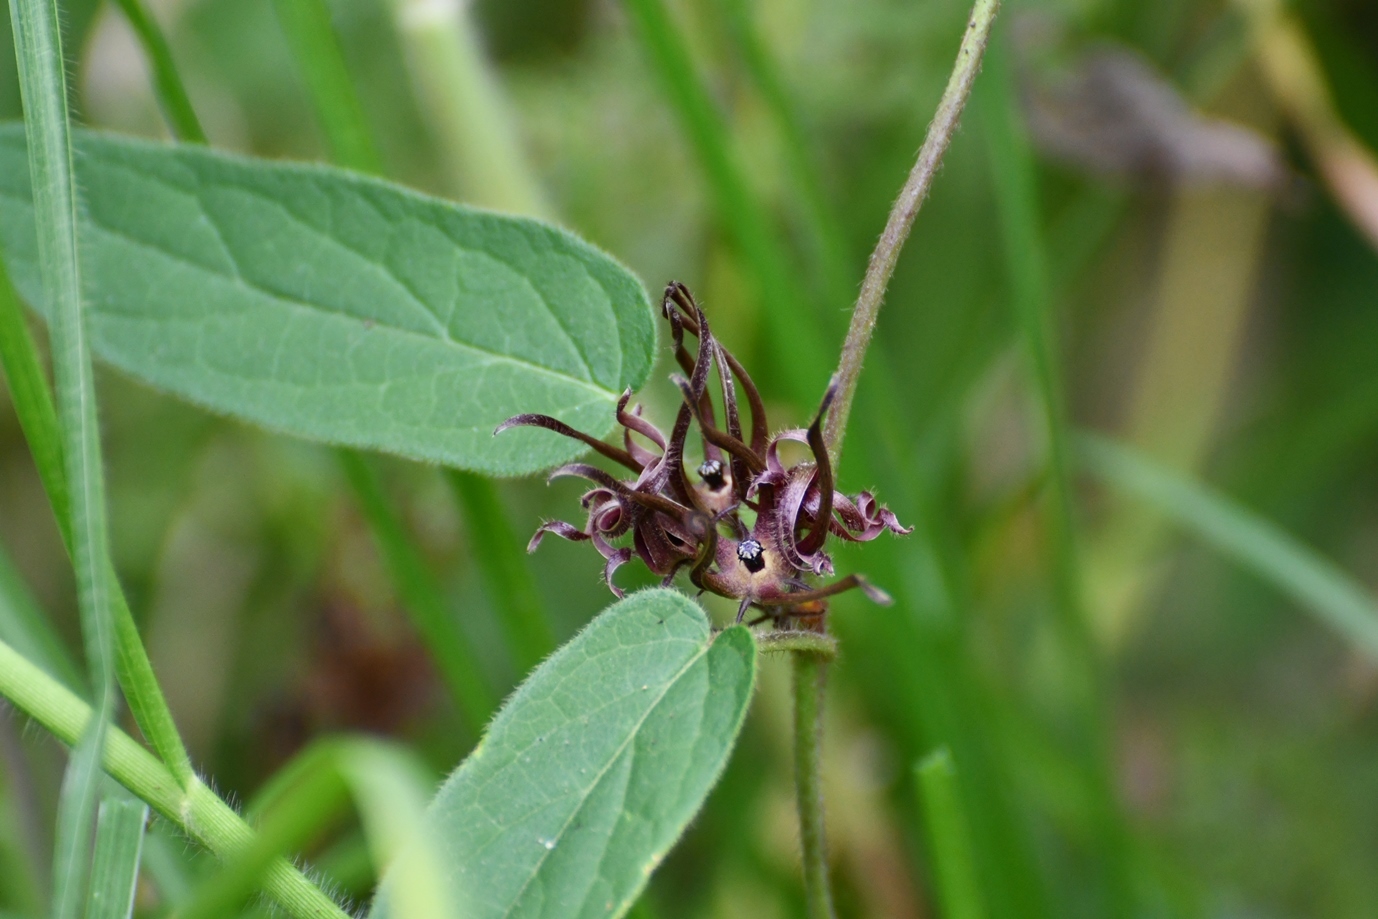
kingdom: Plantae
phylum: Tracheophyta
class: Magnoliopsida
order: Gentianales
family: Apocynaceae
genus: Matelea
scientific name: Matelea medusae
